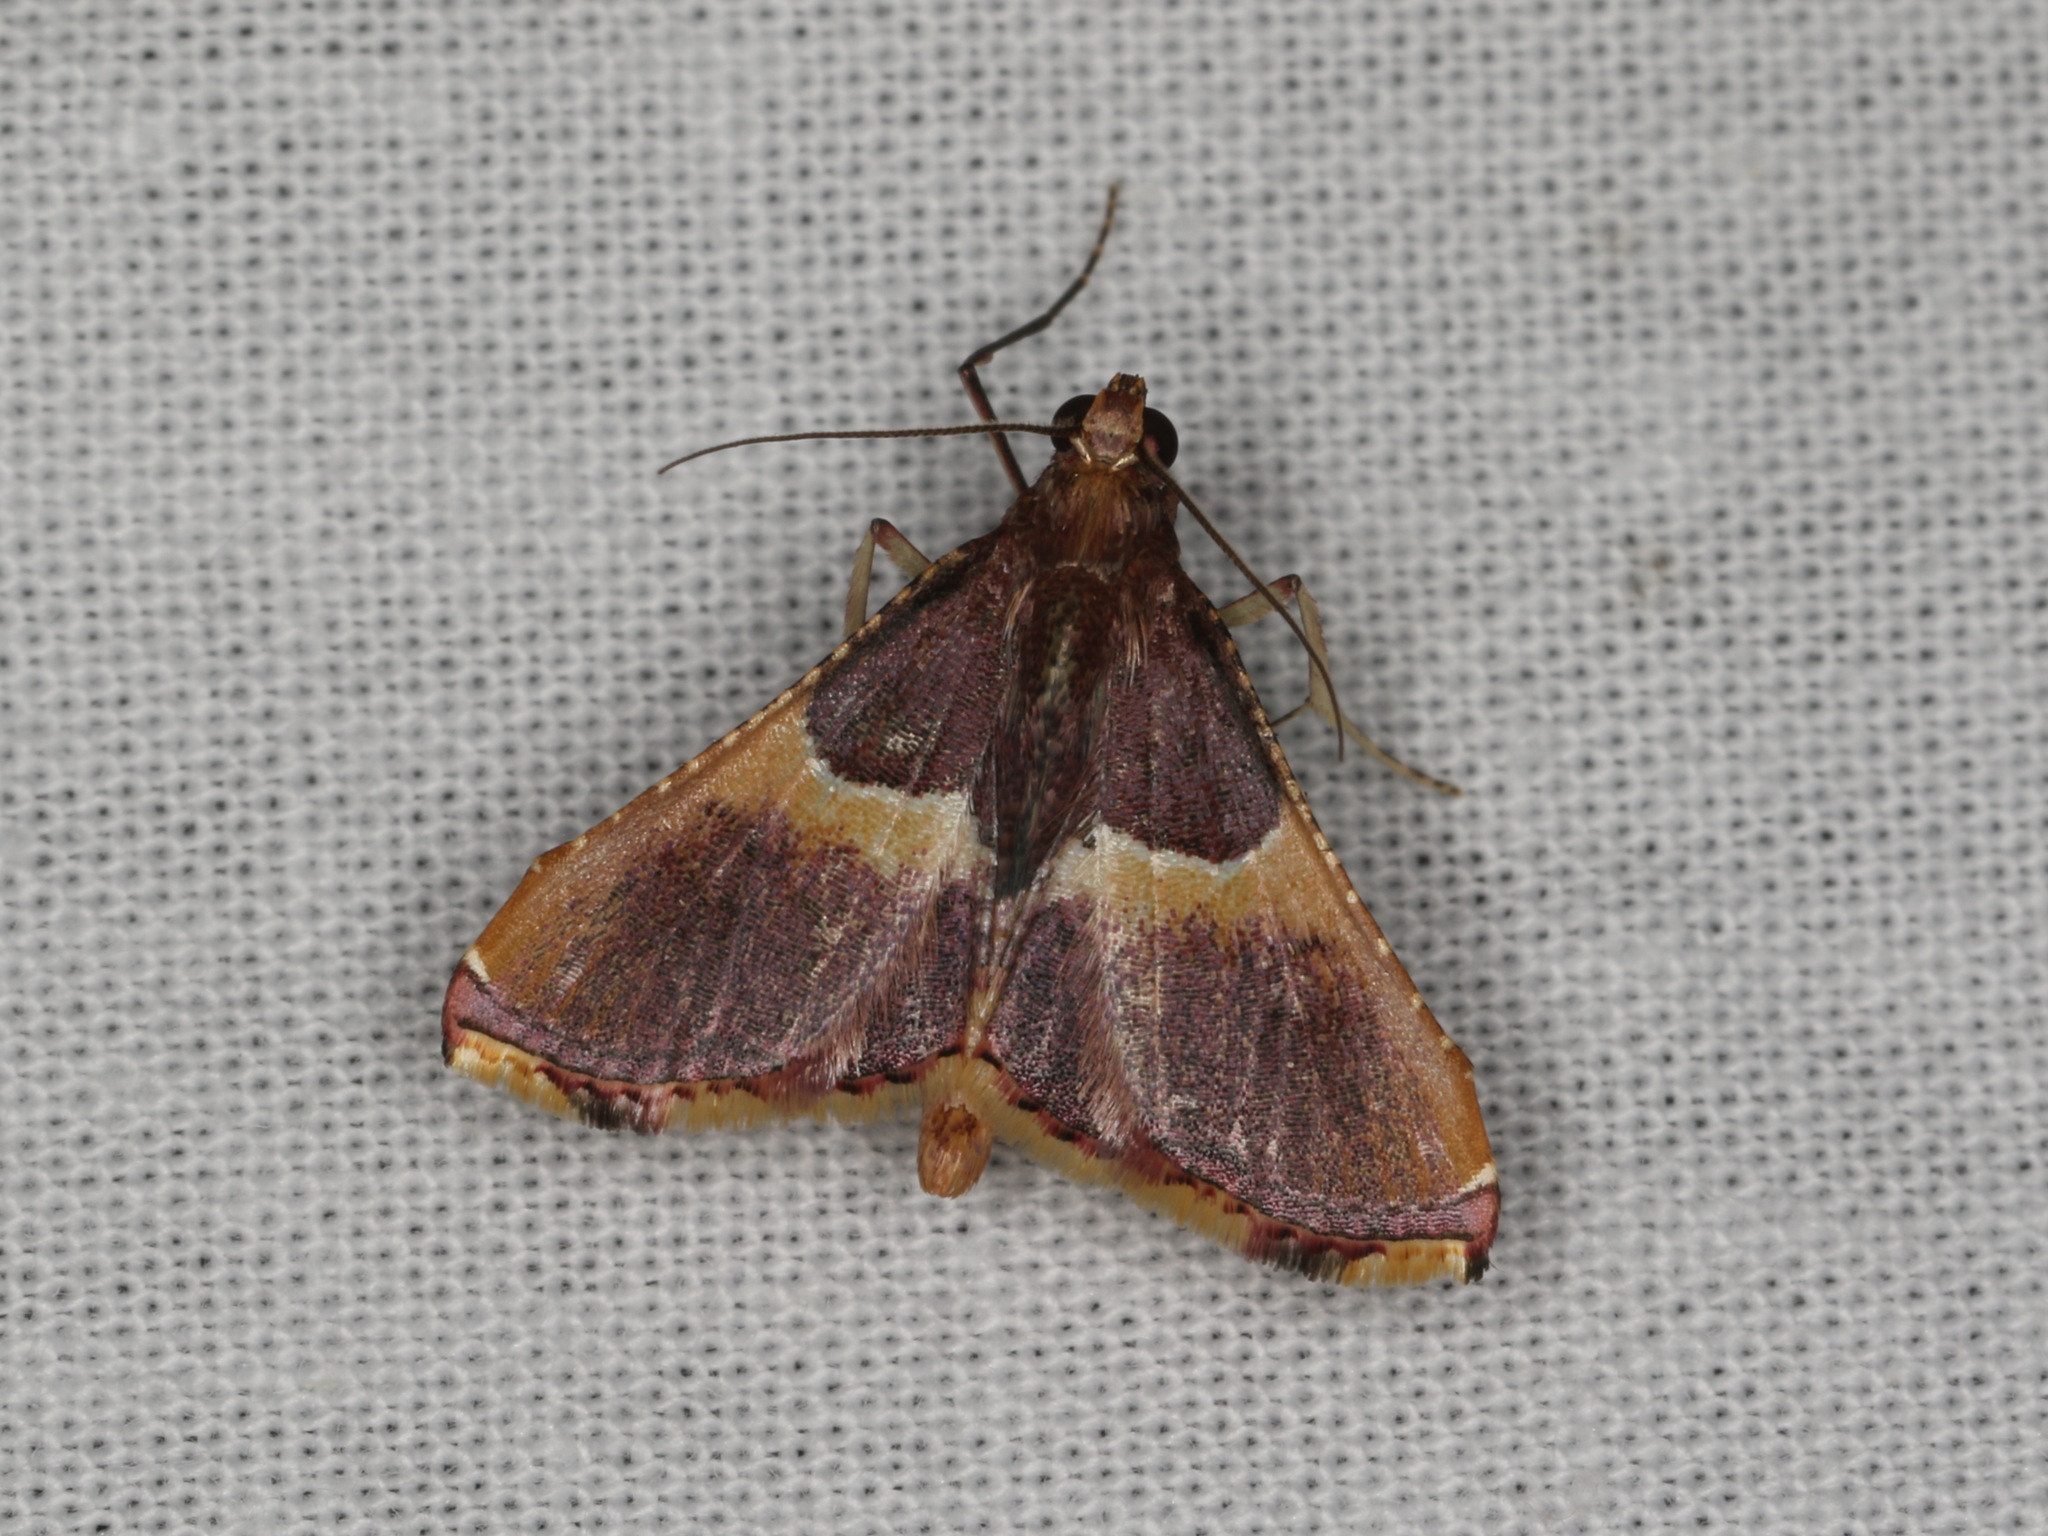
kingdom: Animalia
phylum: Arthropoda
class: Insecta
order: Lepidoptera
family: Pyralidae
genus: Endotricha
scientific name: Endotricha mesenterialis
